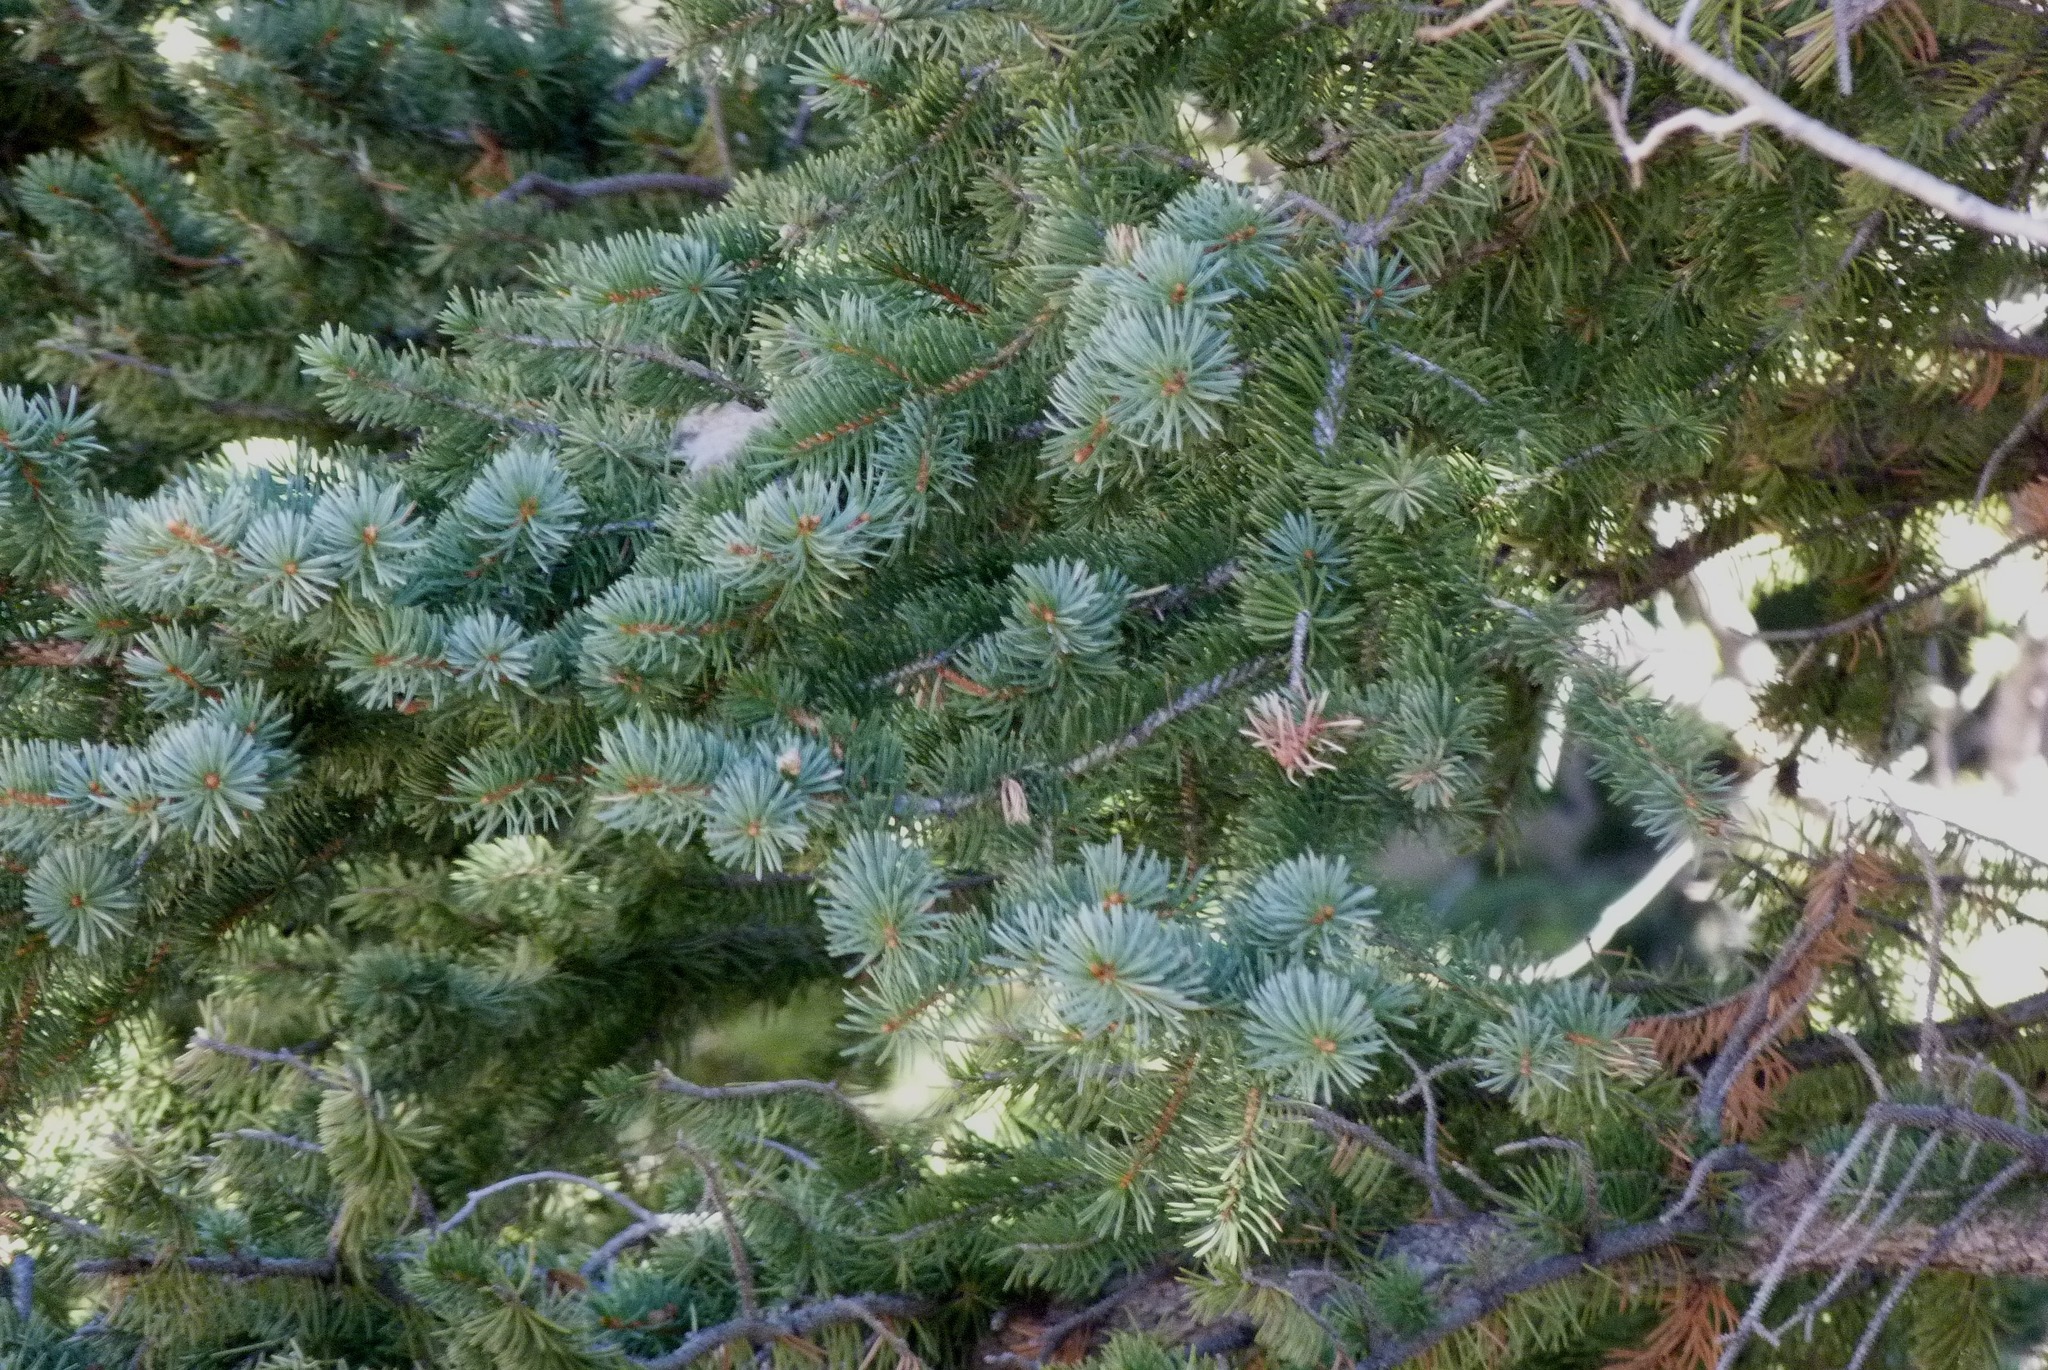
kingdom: Plantae
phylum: Tracheophyta
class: Pinopsida
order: Pinales
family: Pinaceae
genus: Picea
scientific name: Picea pungens
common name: Colorado spruce
